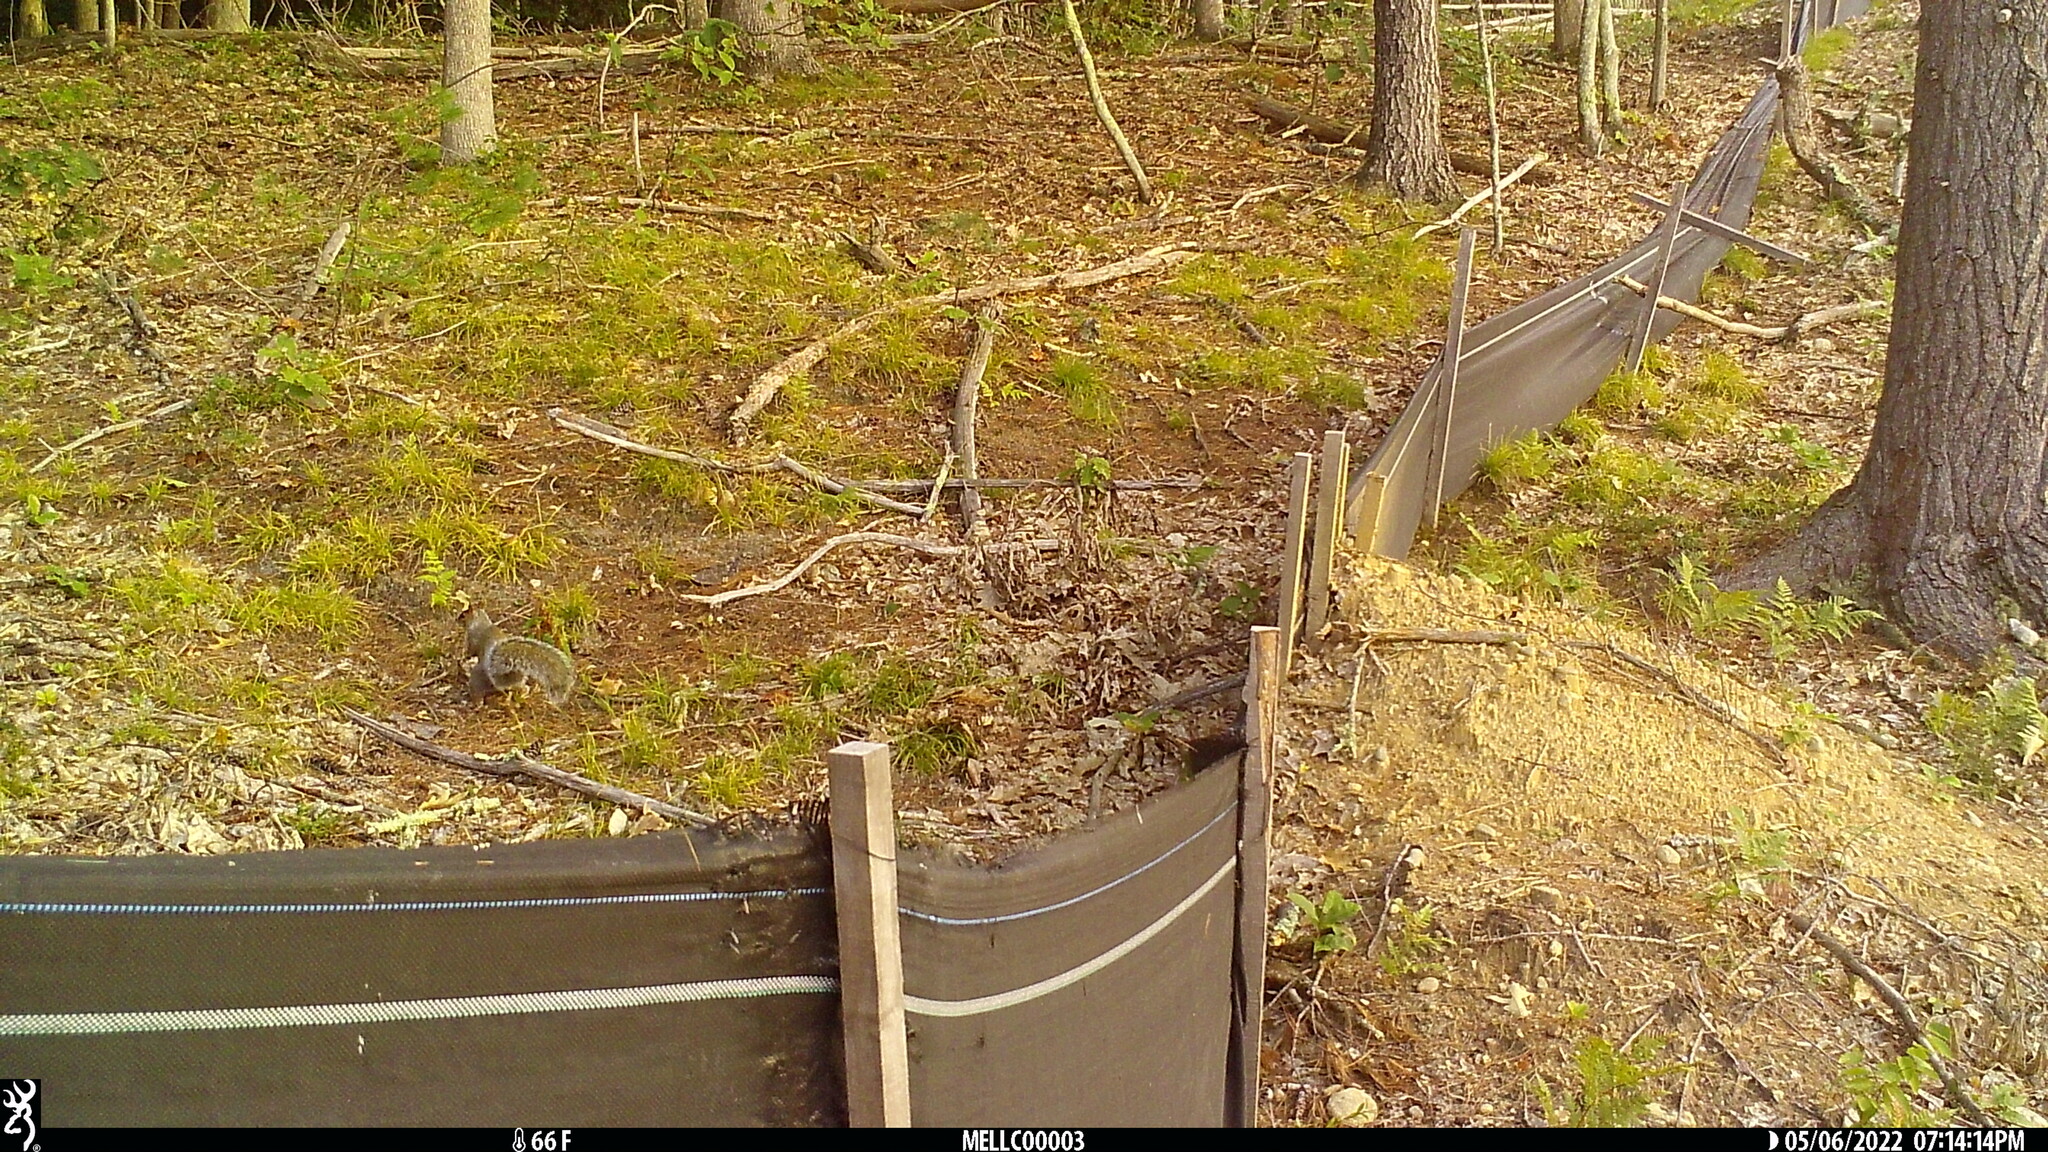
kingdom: Animalia
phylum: Chordata
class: Mammalia
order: Rodentia
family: Sciuridae
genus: Sciurus
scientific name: Sciurus carolinensis
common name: Eastern gray squirrel
